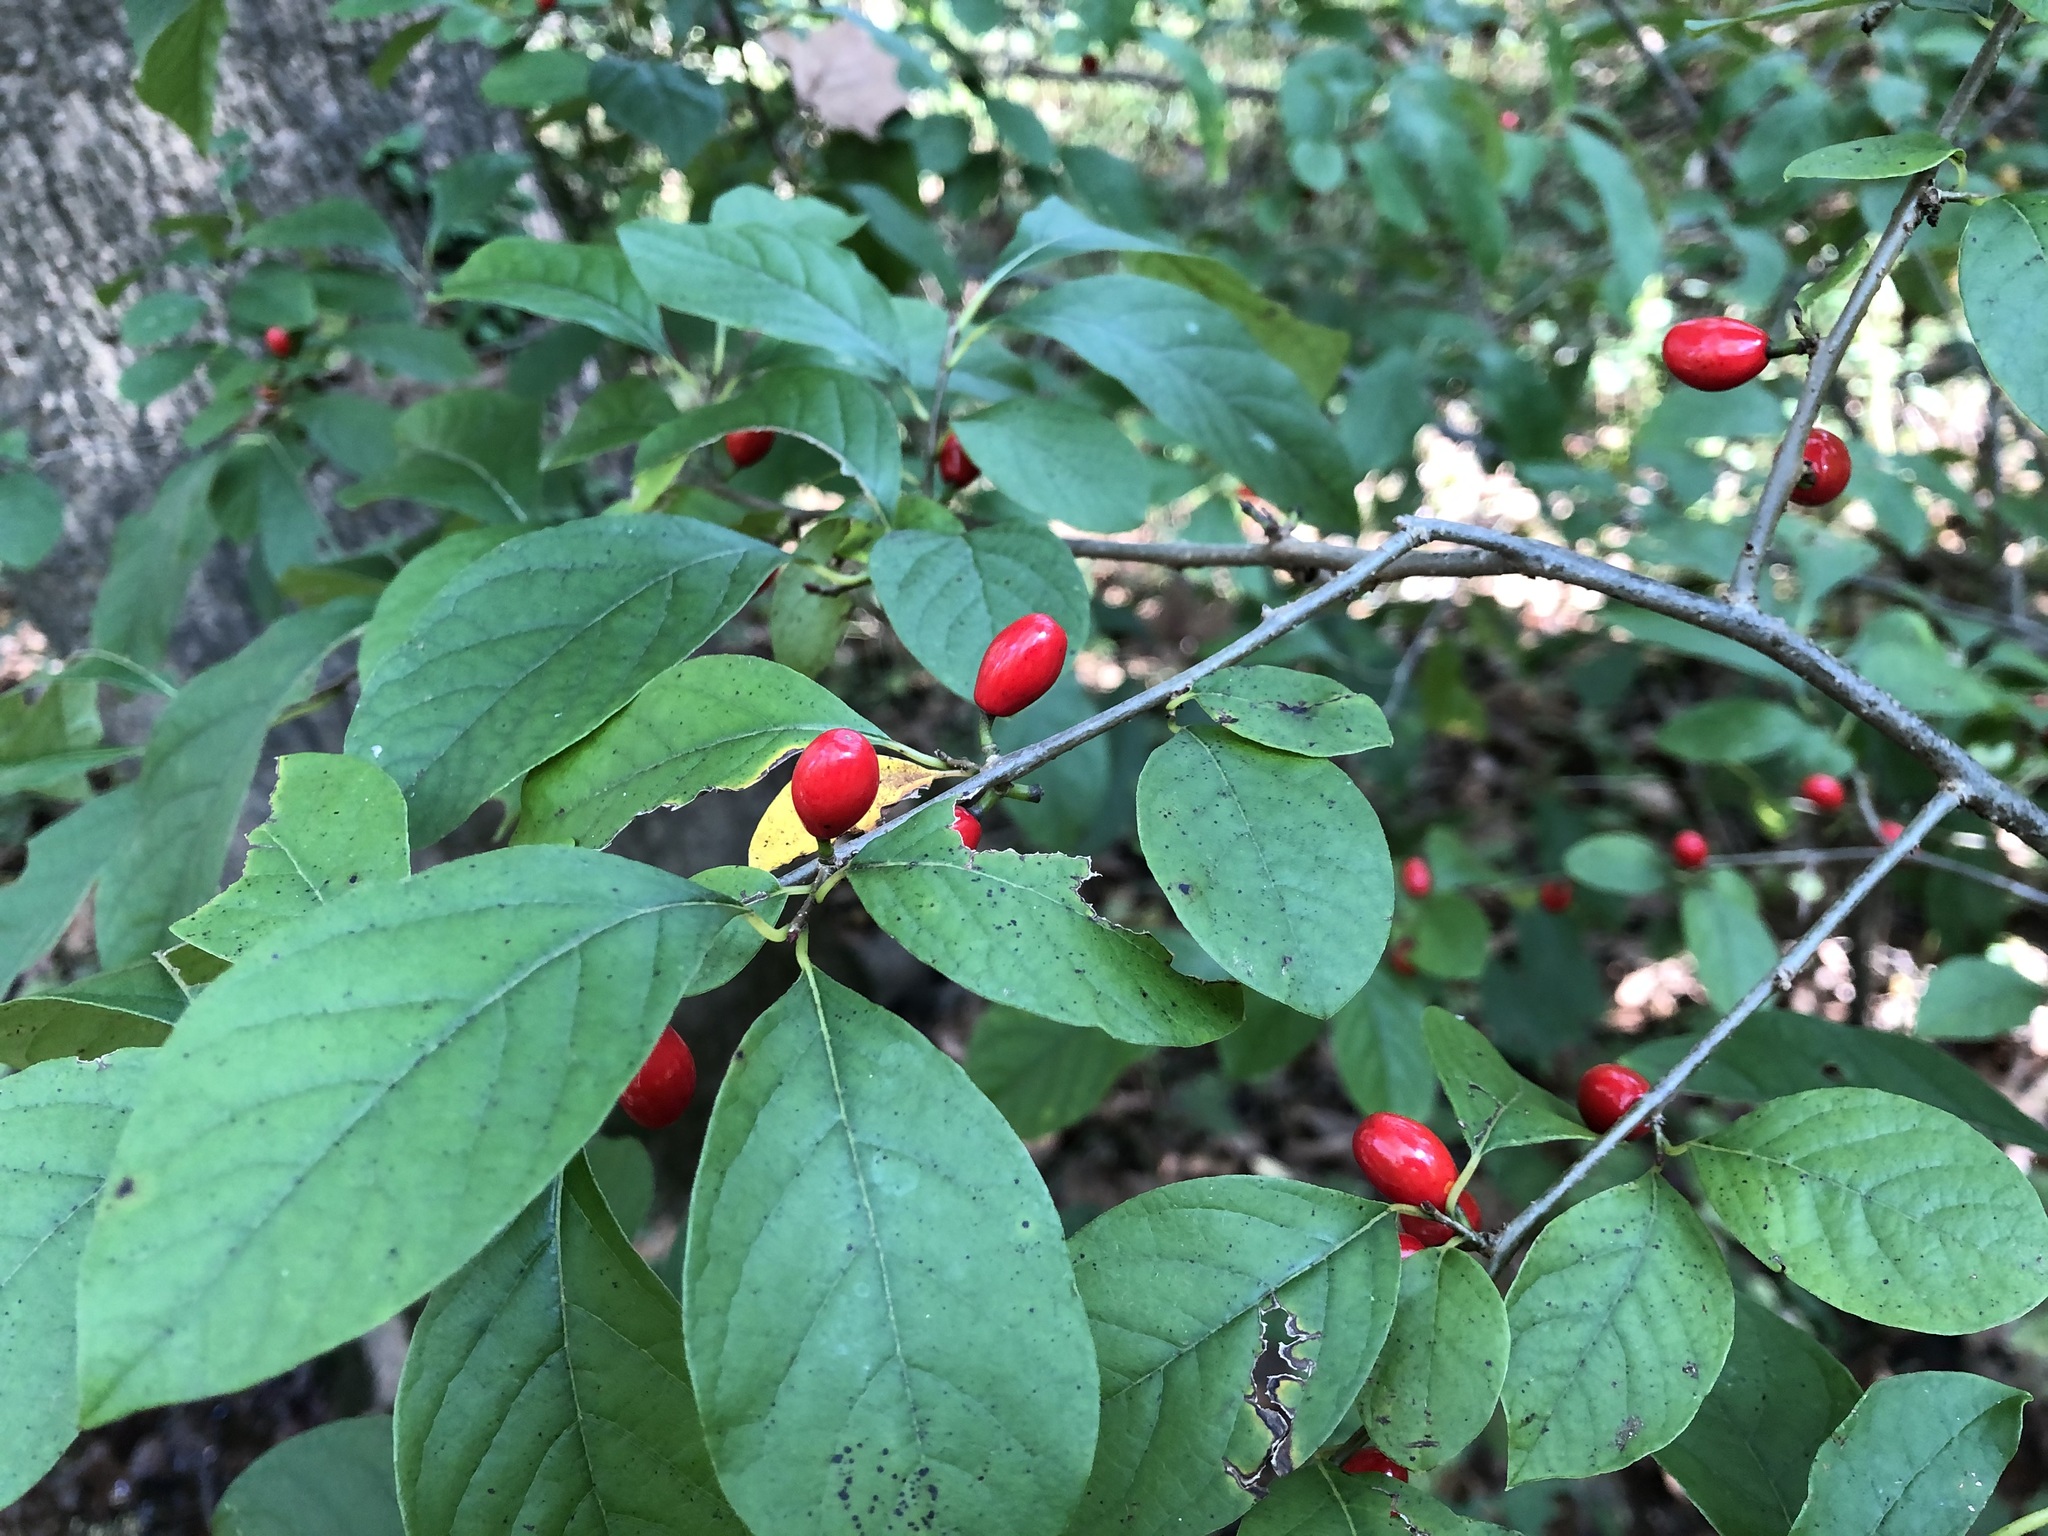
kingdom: Plantae
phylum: Tracheophyta
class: Magnoliopsida
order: Laurales
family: Lauraceae
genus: Lindera
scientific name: Lindera benzoin
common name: Spicebush
